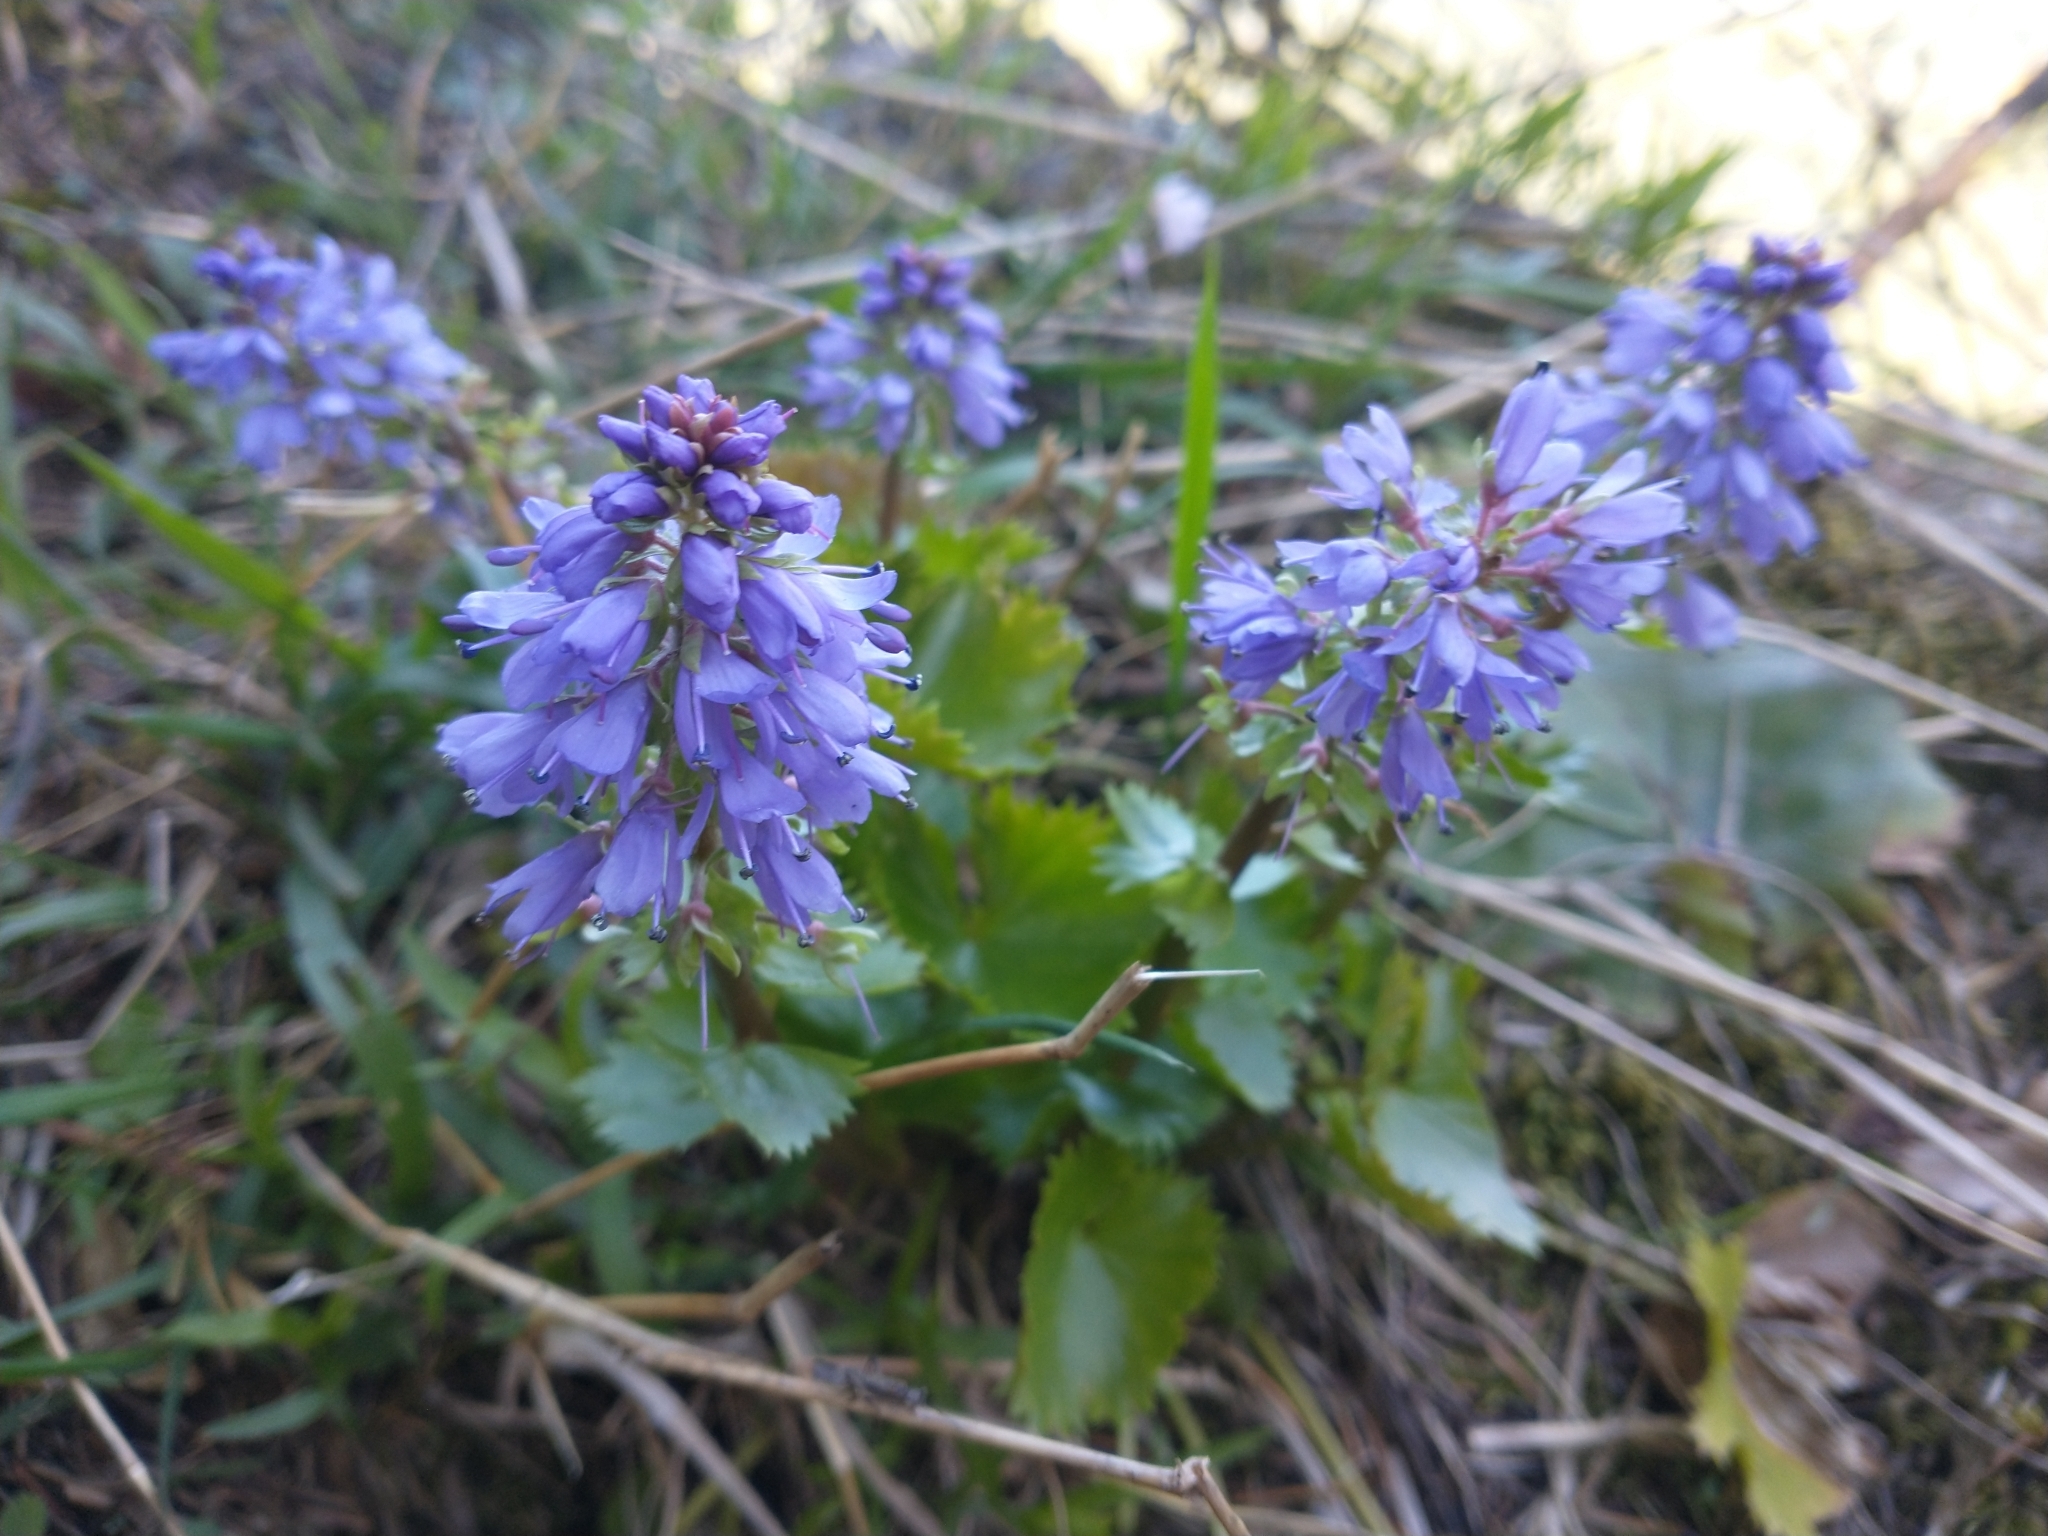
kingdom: Plantae
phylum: Tracheophyta
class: Magnoliopsida
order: Lamiales
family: Plantaginaceae
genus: Synthyris
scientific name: Synthyris missurica
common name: Kitten-tails
